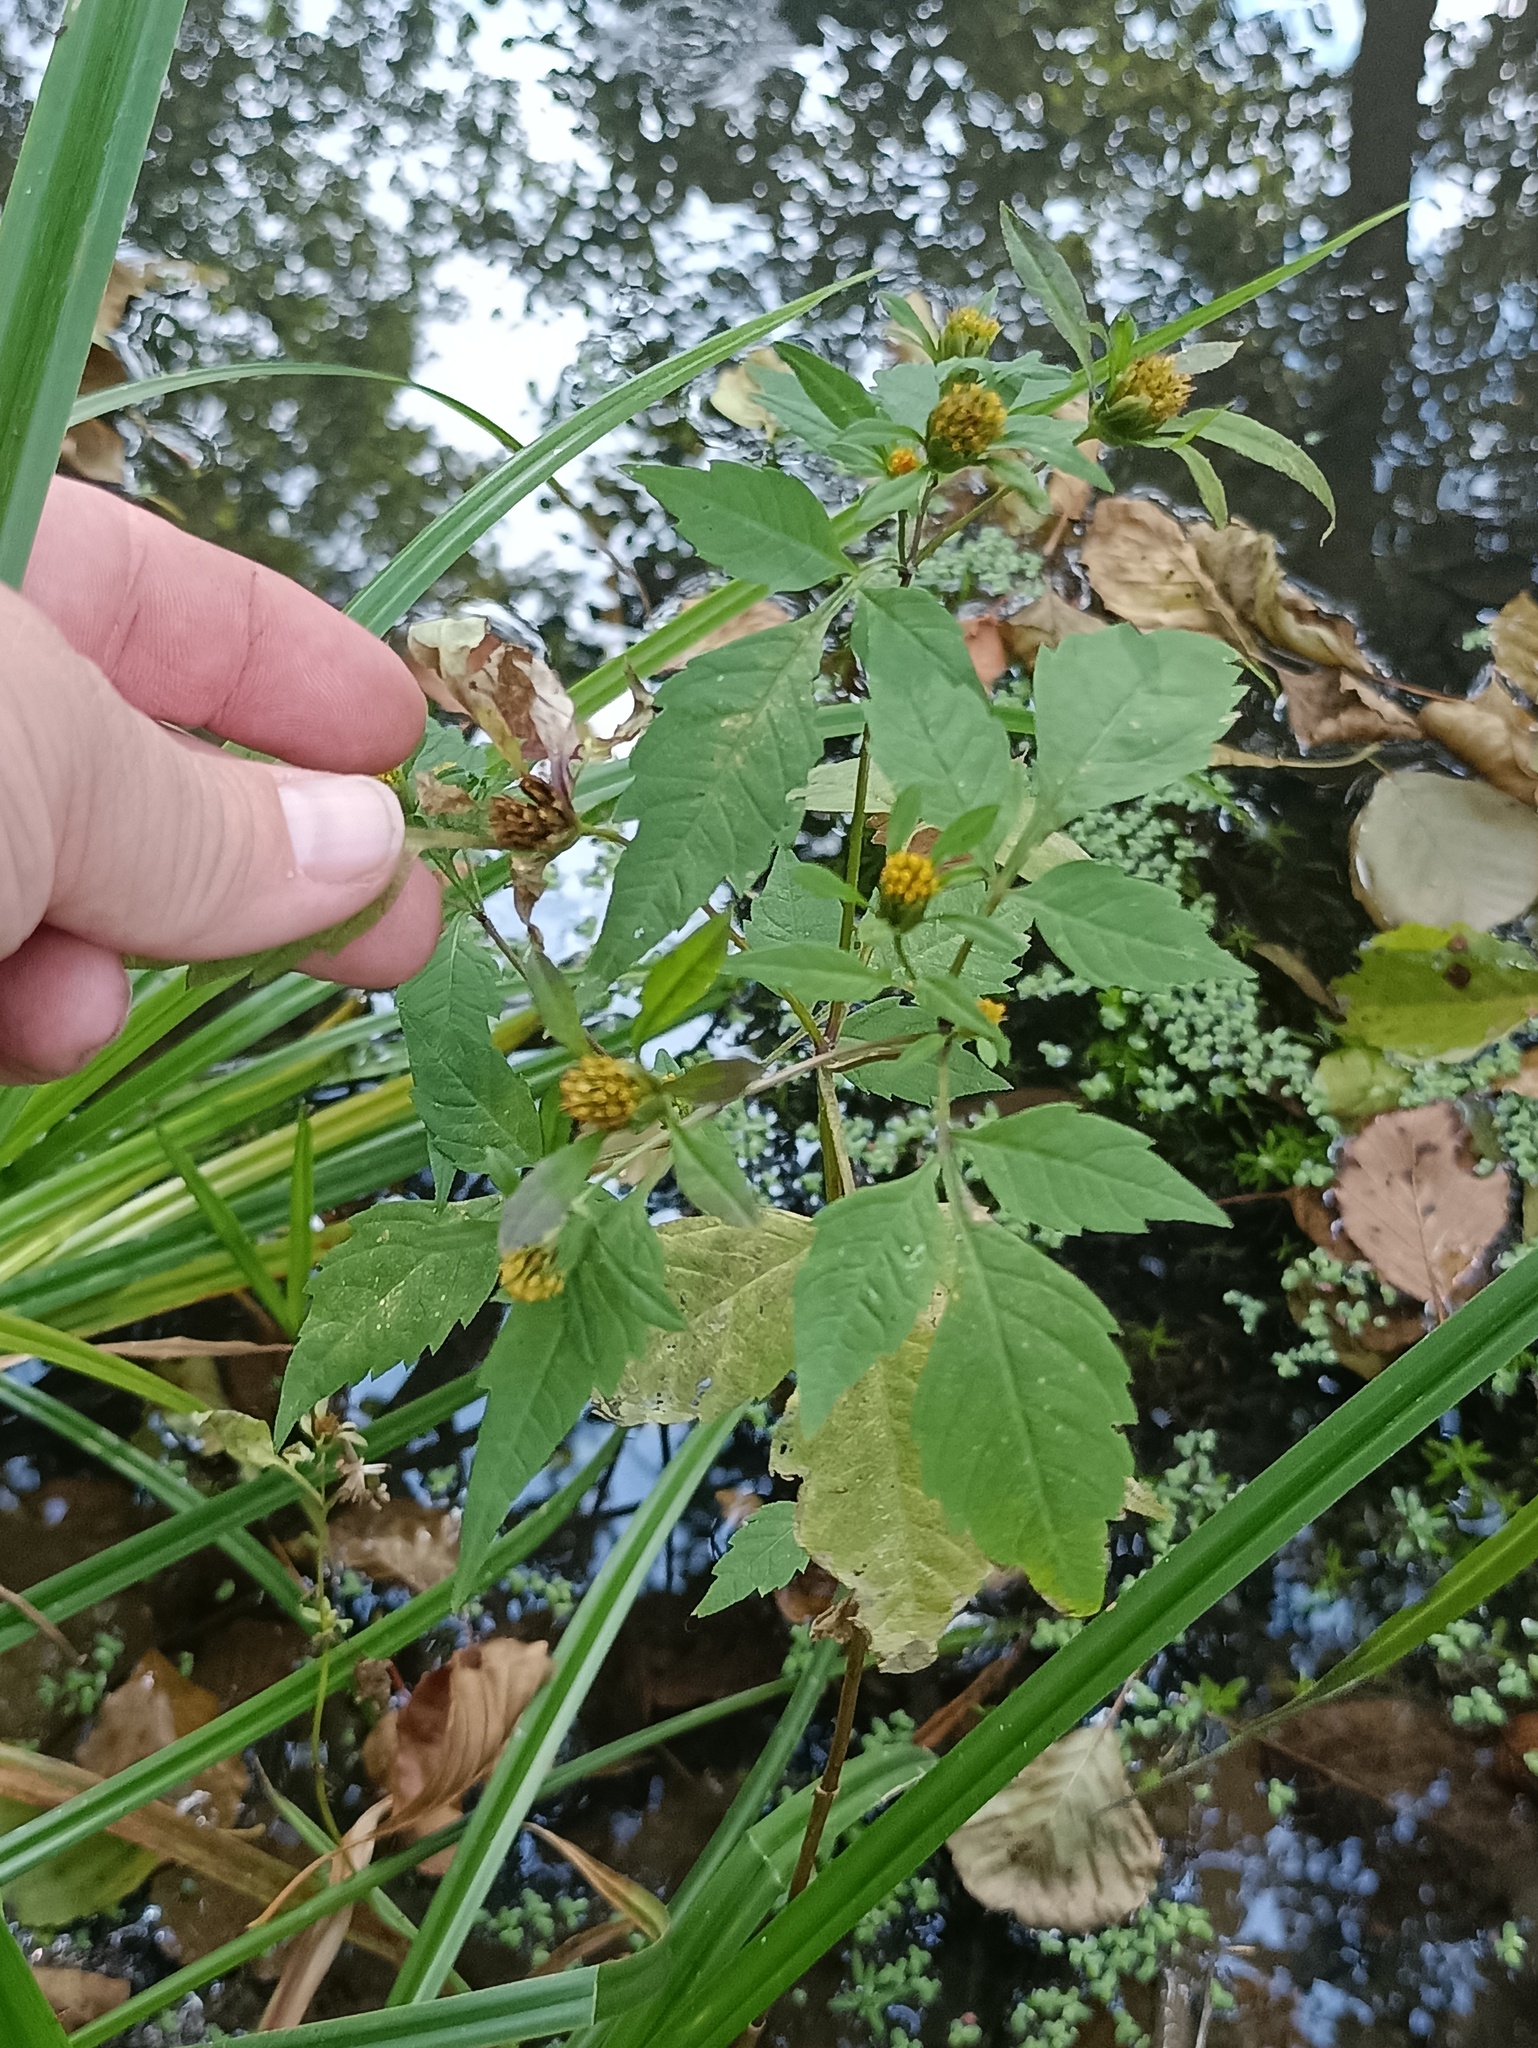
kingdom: Plantae
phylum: Tracheophyta
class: Magnoliopsida
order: Asterales
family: Asteraceae
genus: Bidens
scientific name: Bidens frondosa
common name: Beggarticks
